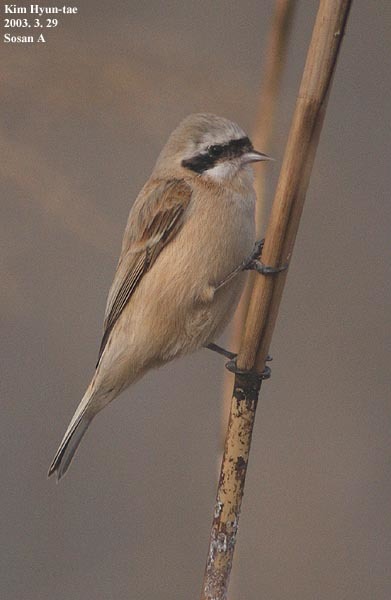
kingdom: Animalia
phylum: Chordata
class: Aves
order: Passeriformes
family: Remizidae
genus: Remiz
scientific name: Remiz consobrinus
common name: Chinese penduline tit
